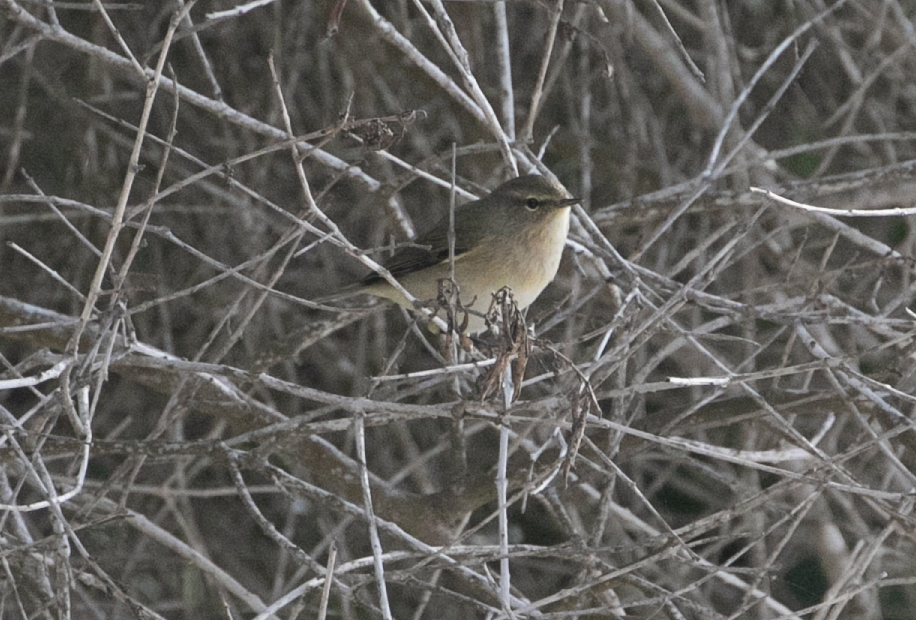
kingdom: Animalia
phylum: Chordata
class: Aves
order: Passeriformes
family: Phylloscopidae
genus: Phylloscopus
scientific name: Phylloscopus collybita
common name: Common chiffchaff
